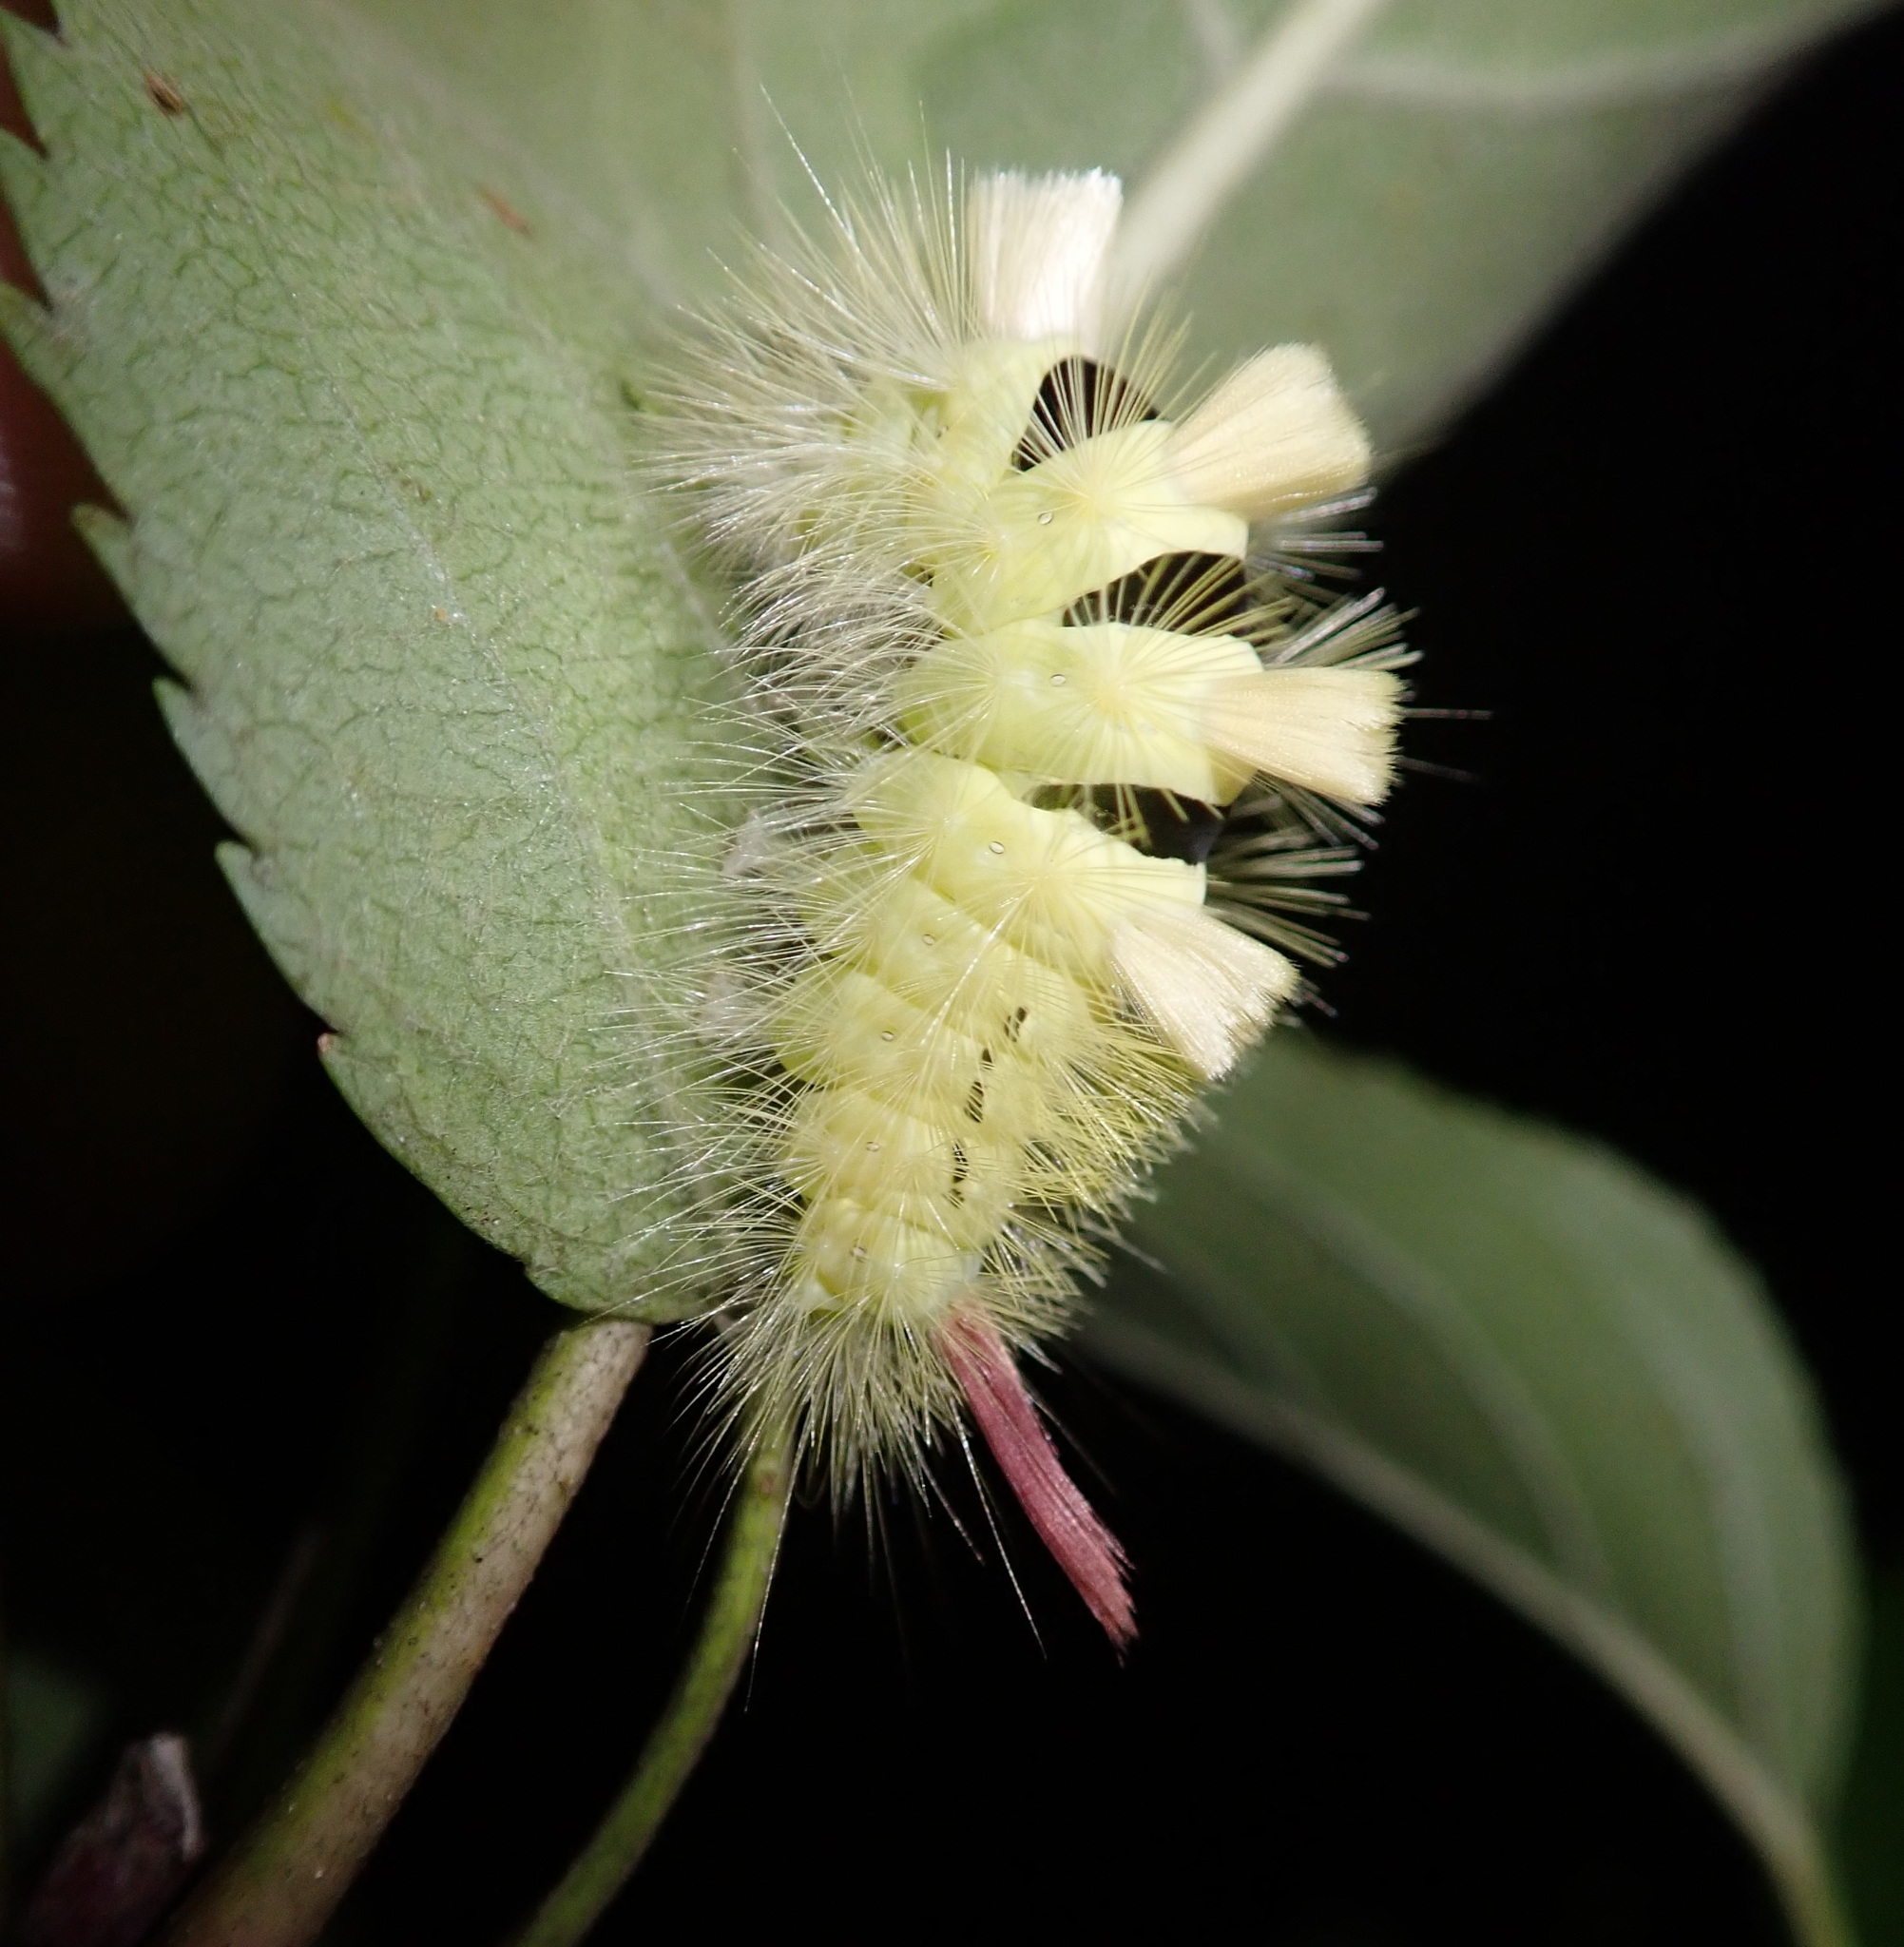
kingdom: Animalia
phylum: Arthropoda
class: Insecta
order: Lepidoptera
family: Erebidae
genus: Calliteara
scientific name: Calliteara pudibunda
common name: Pale tussock
